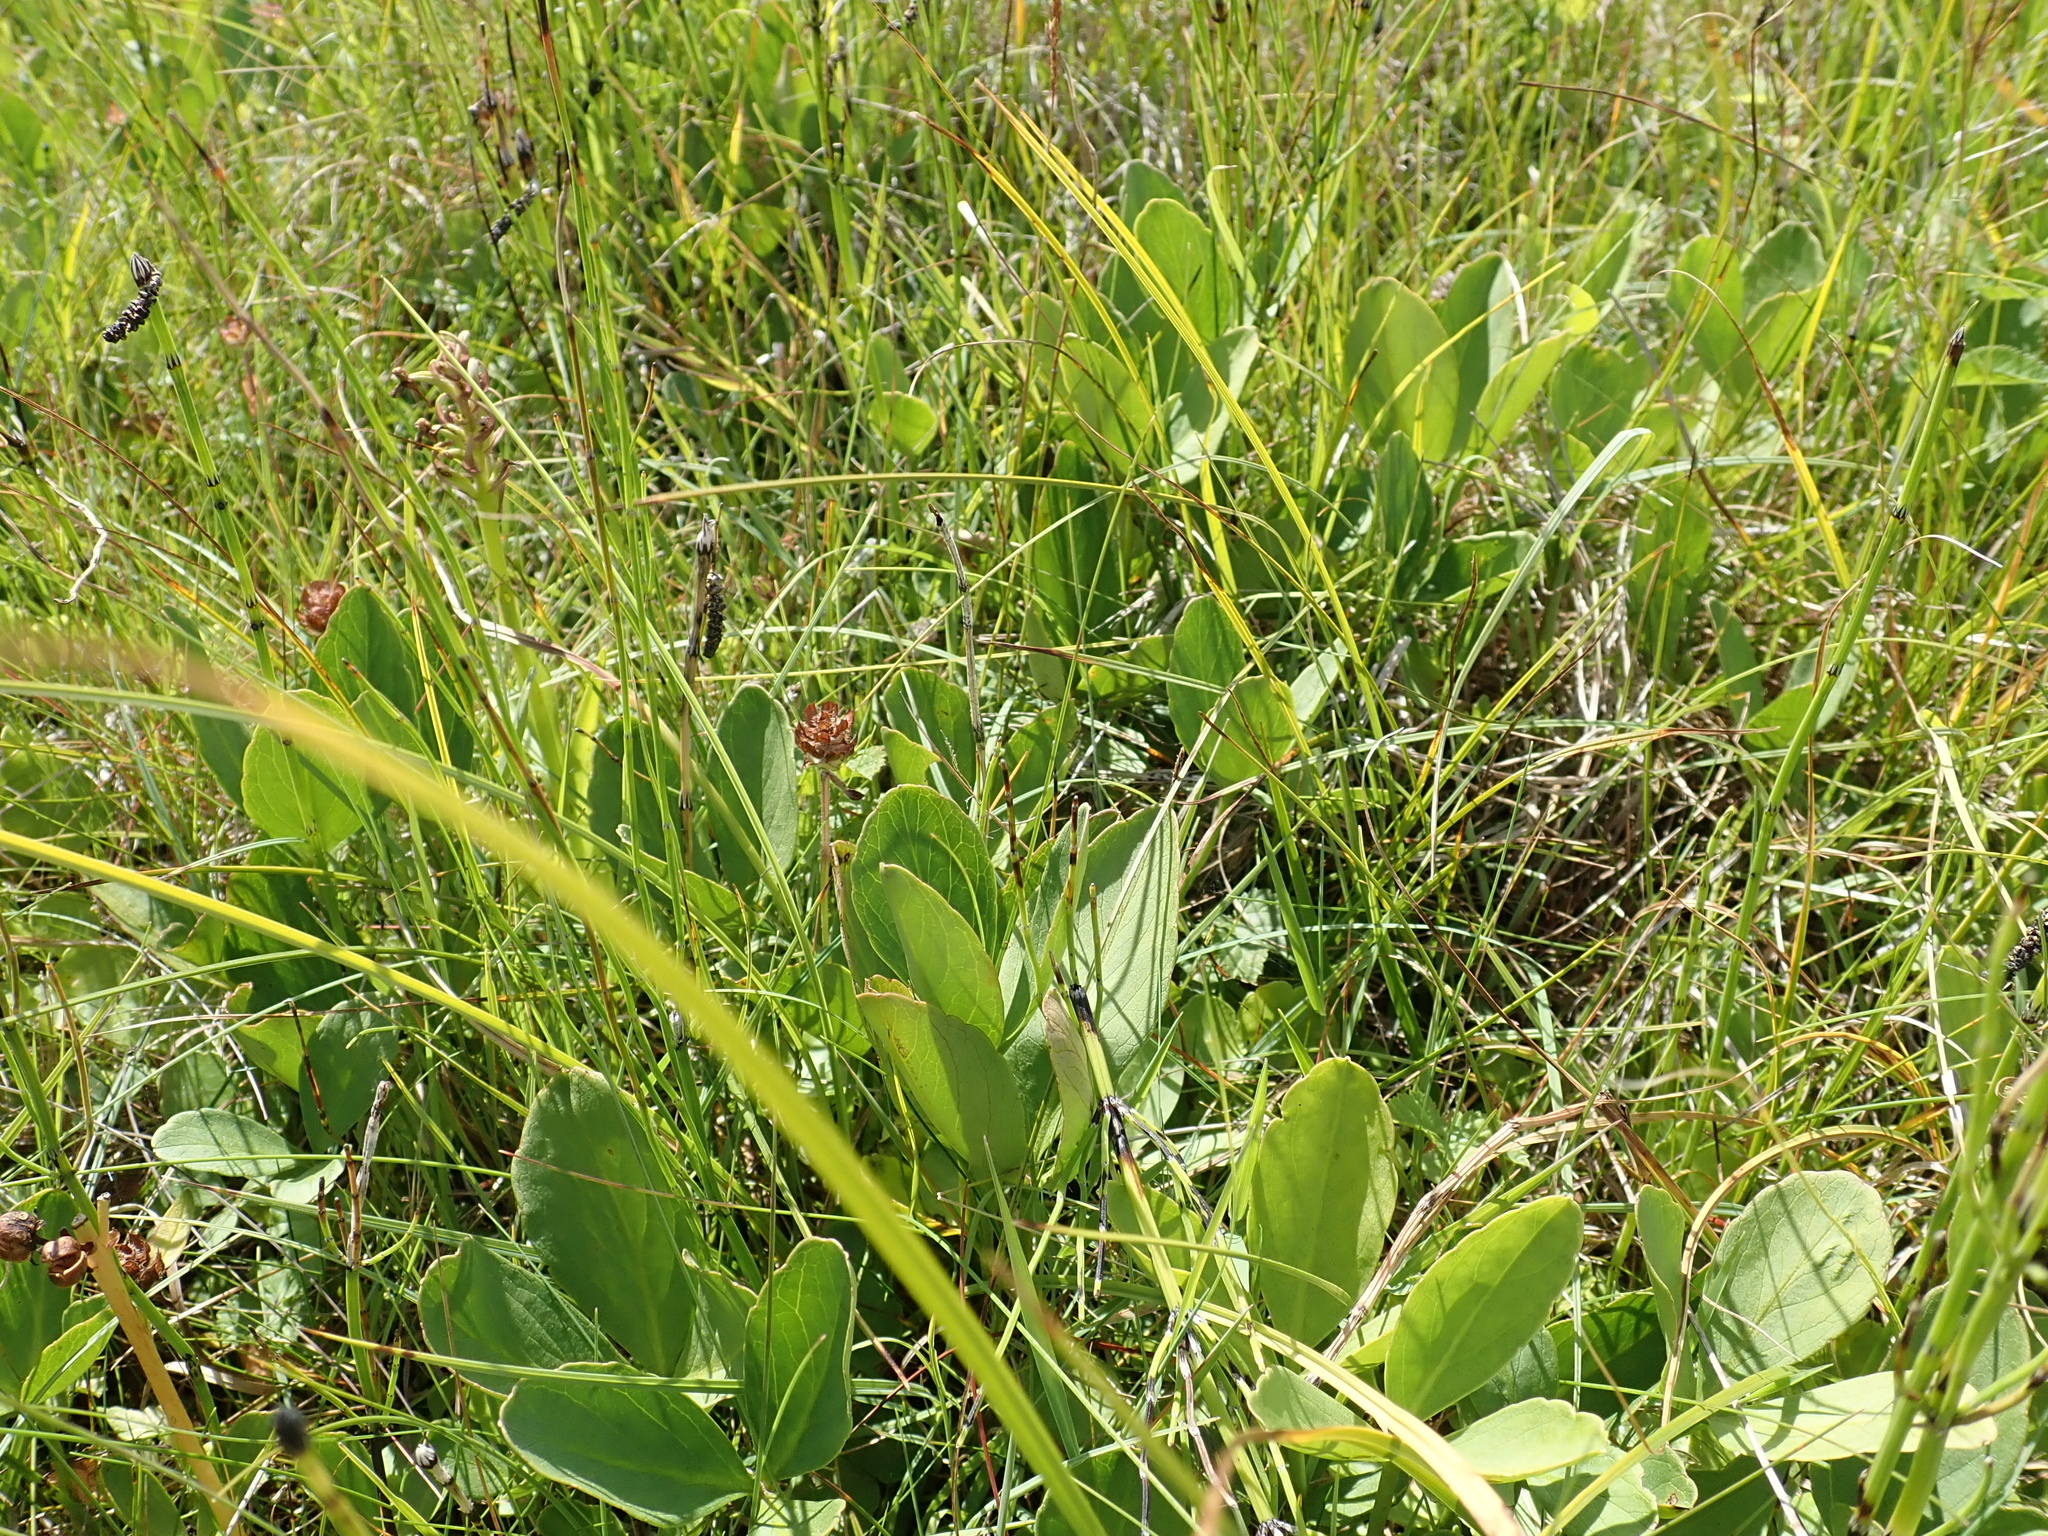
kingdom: Plantae
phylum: Tracheophyta
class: Magnoliopsida
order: Asterales
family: Menyanthaceae
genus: Menyanthes
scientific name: Menyanthes trifoliata
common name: Bogbean
